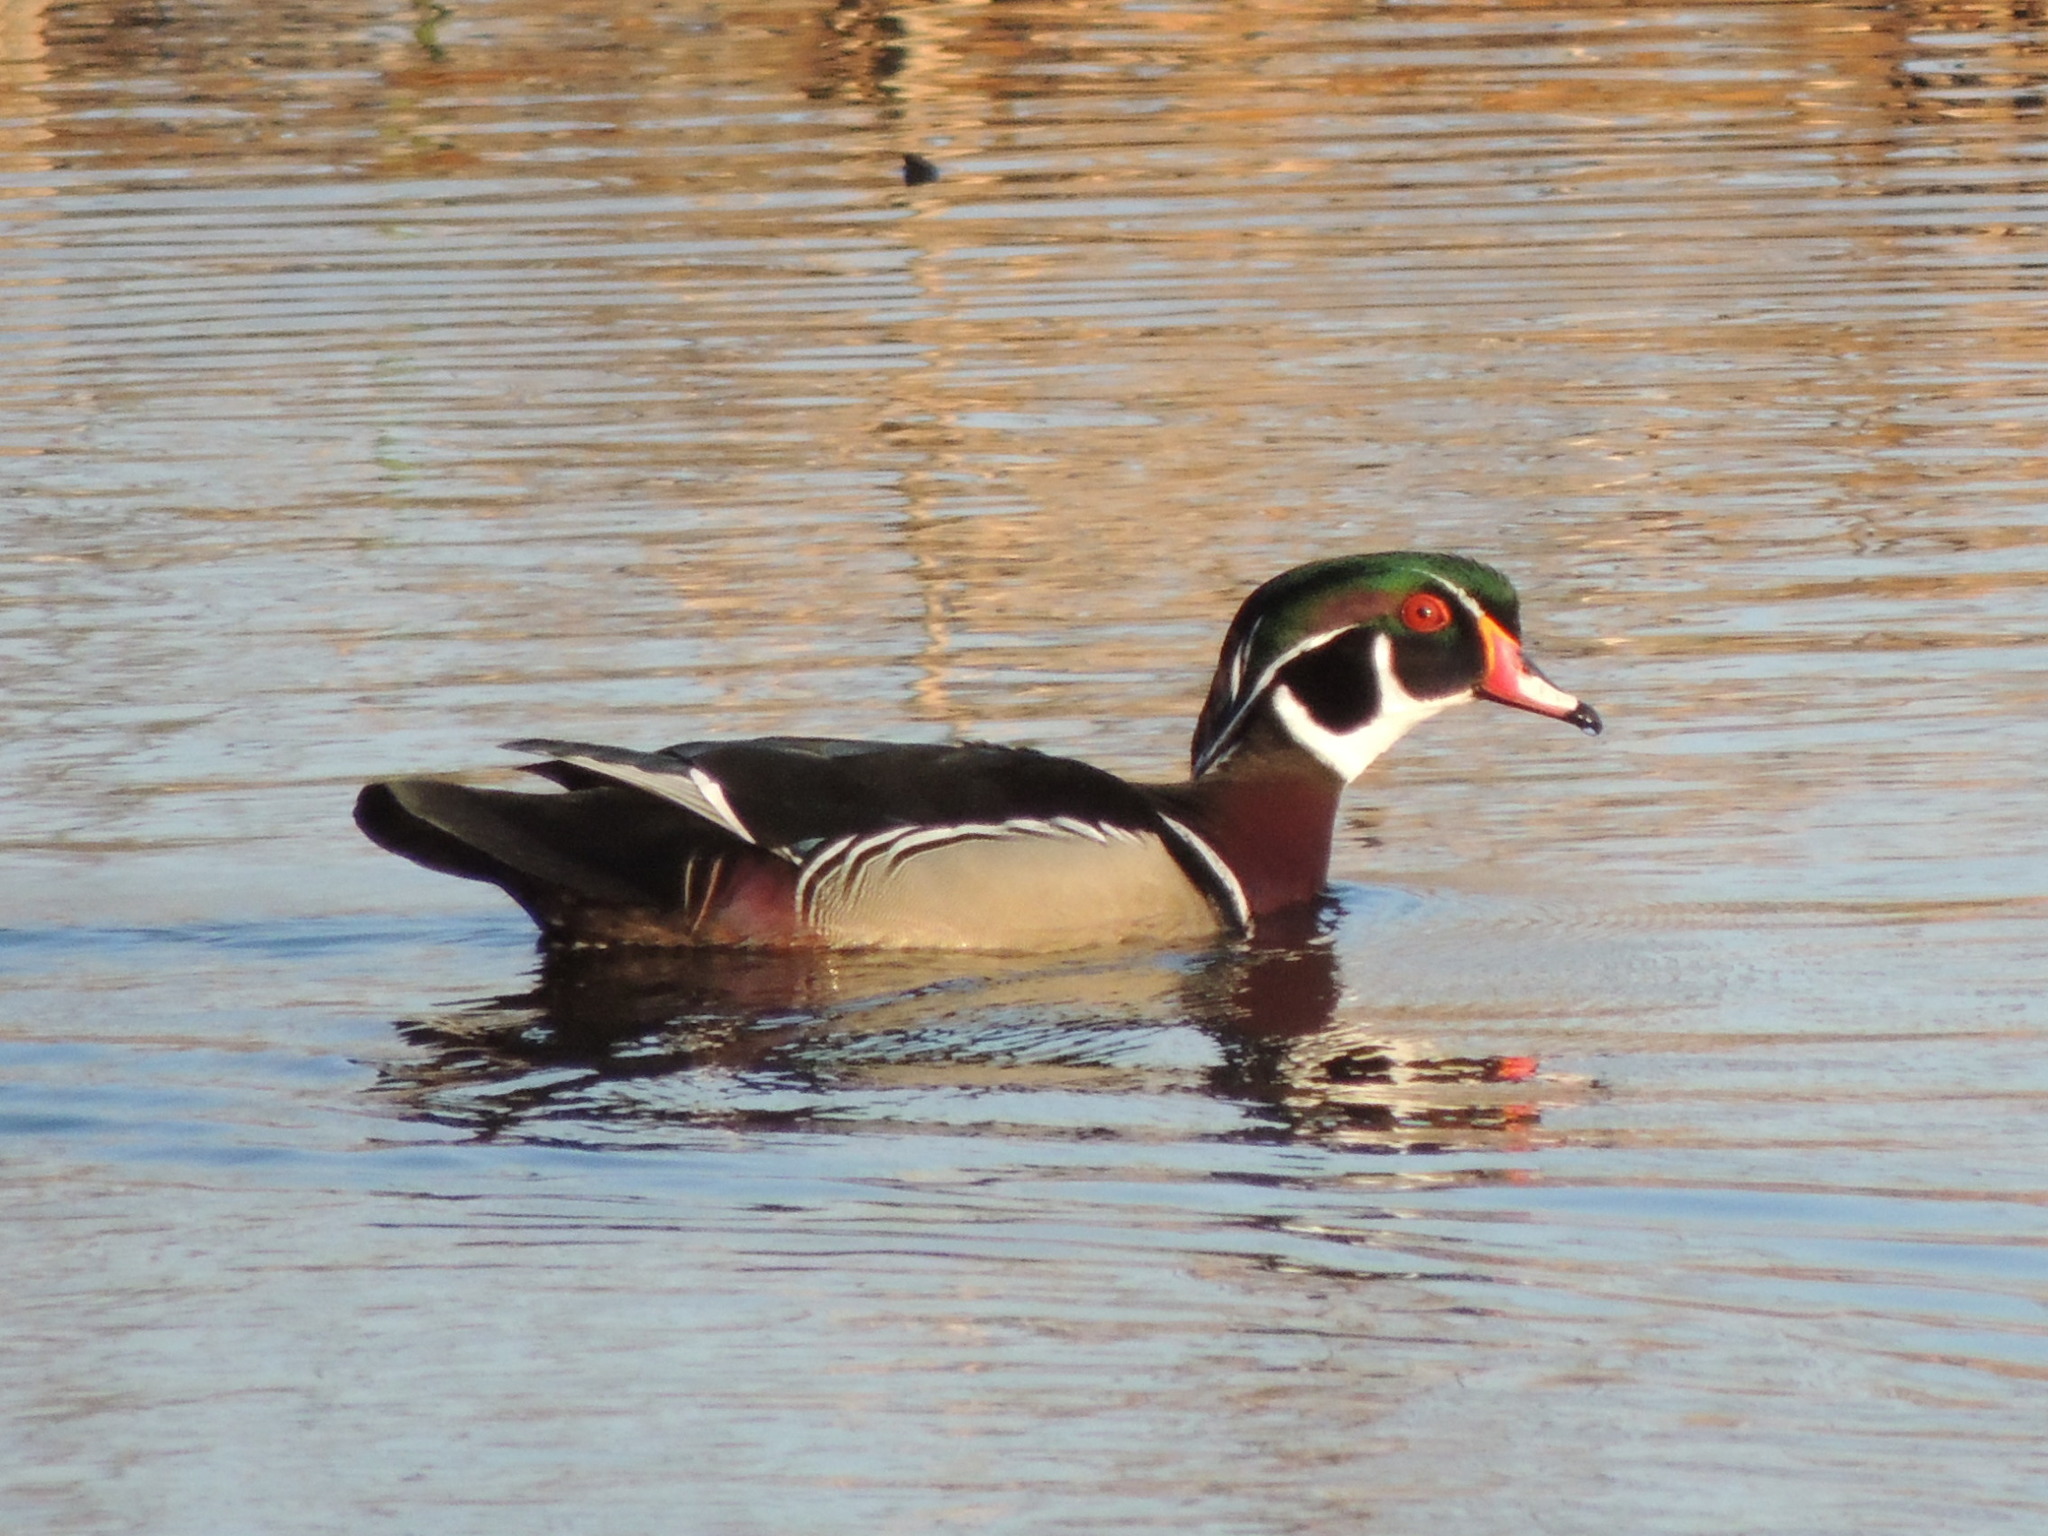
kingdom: Animalia
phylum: Chordata
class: Aves
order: Anseriformes
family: Anatidae
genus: Aix
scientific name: Aix sponsa
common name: Wood duck
